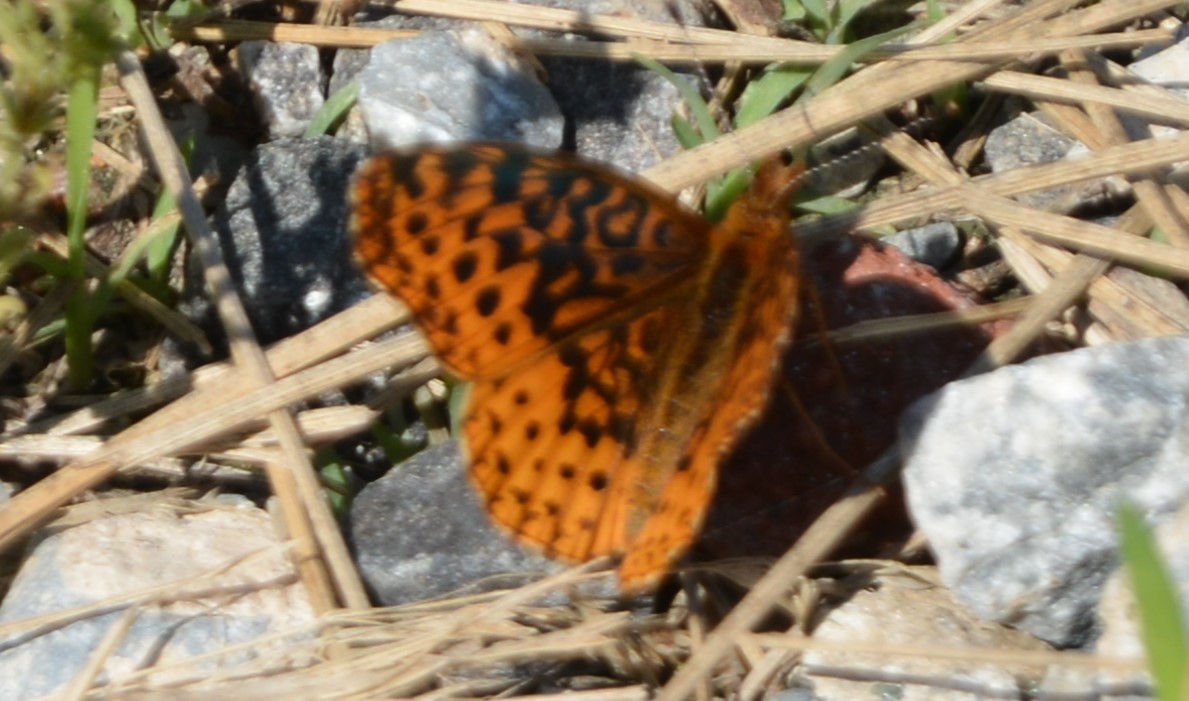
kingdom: Animalia
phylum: Arthropoda
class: Insecta
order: Lepidoptera
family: Nymphalidae
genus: Clossiana
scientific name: Clossiana toddi
